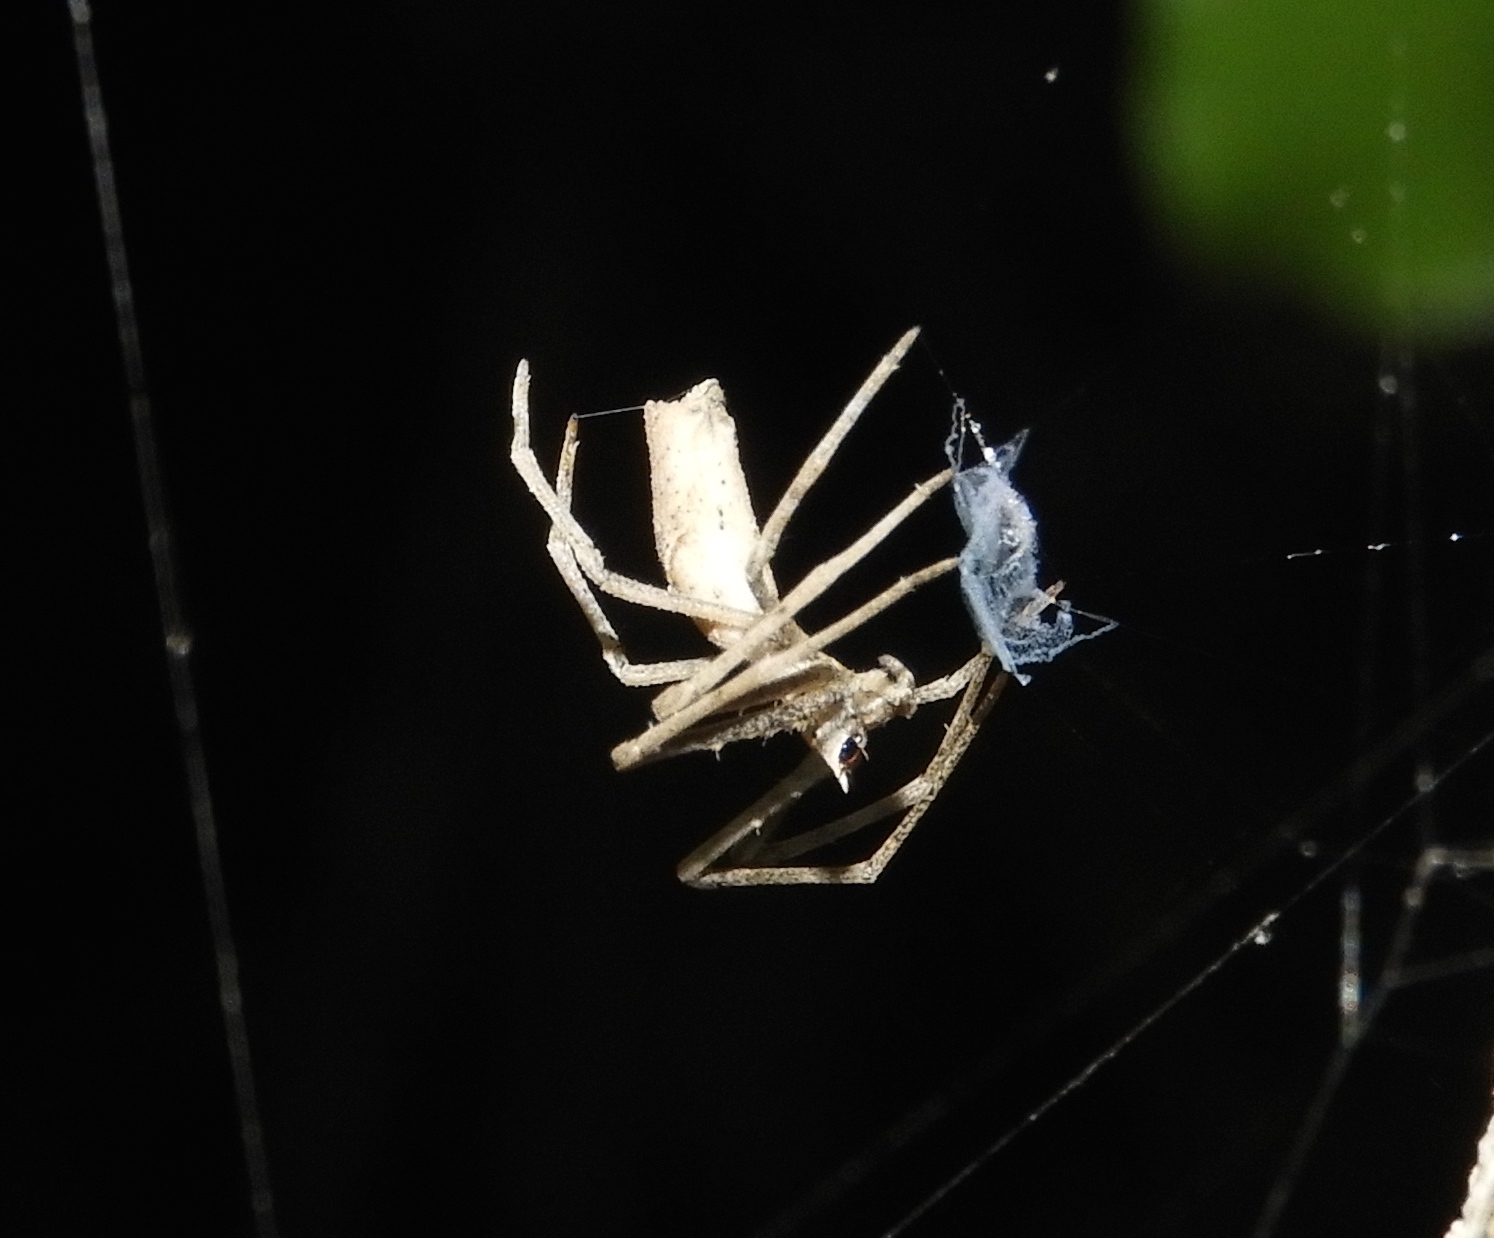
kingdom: Animalia
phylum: Arthropoda
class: Arachnida
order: Araneae
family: Deinopidae
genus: Deinopis
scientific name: Deinopis aurita
